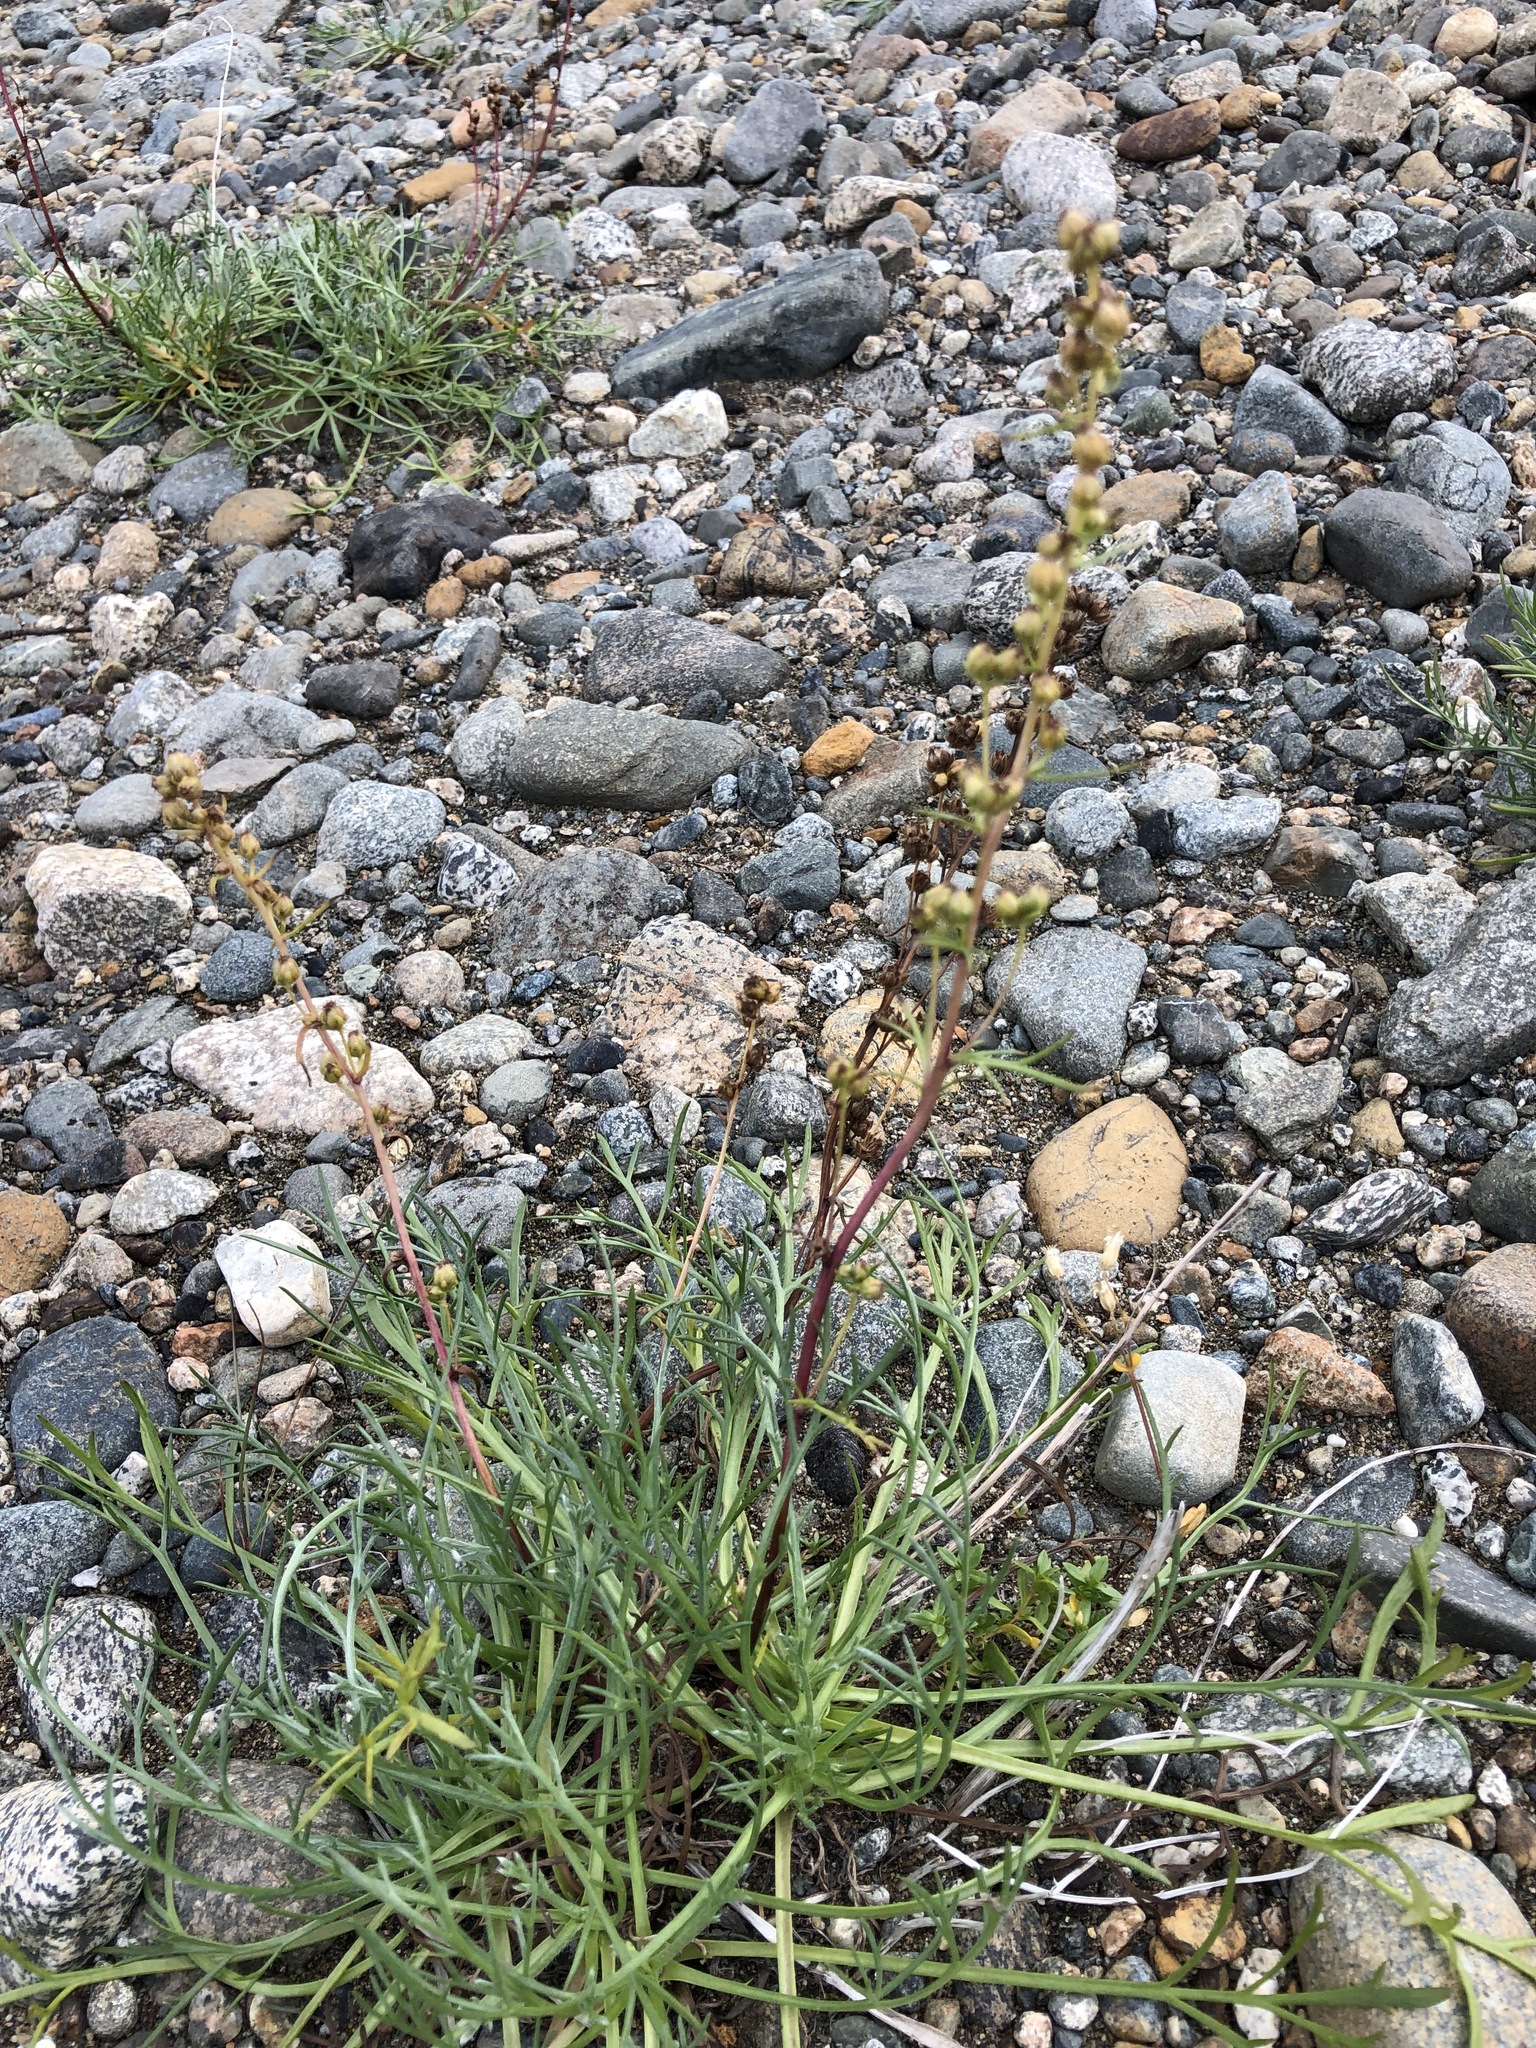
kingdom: Plantae
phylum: Tracheophyta
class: Magnoliopsida
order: Asterales
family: Asteraceae
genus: Artemisia
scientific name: Artemisia borealis
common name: Boreal sage
